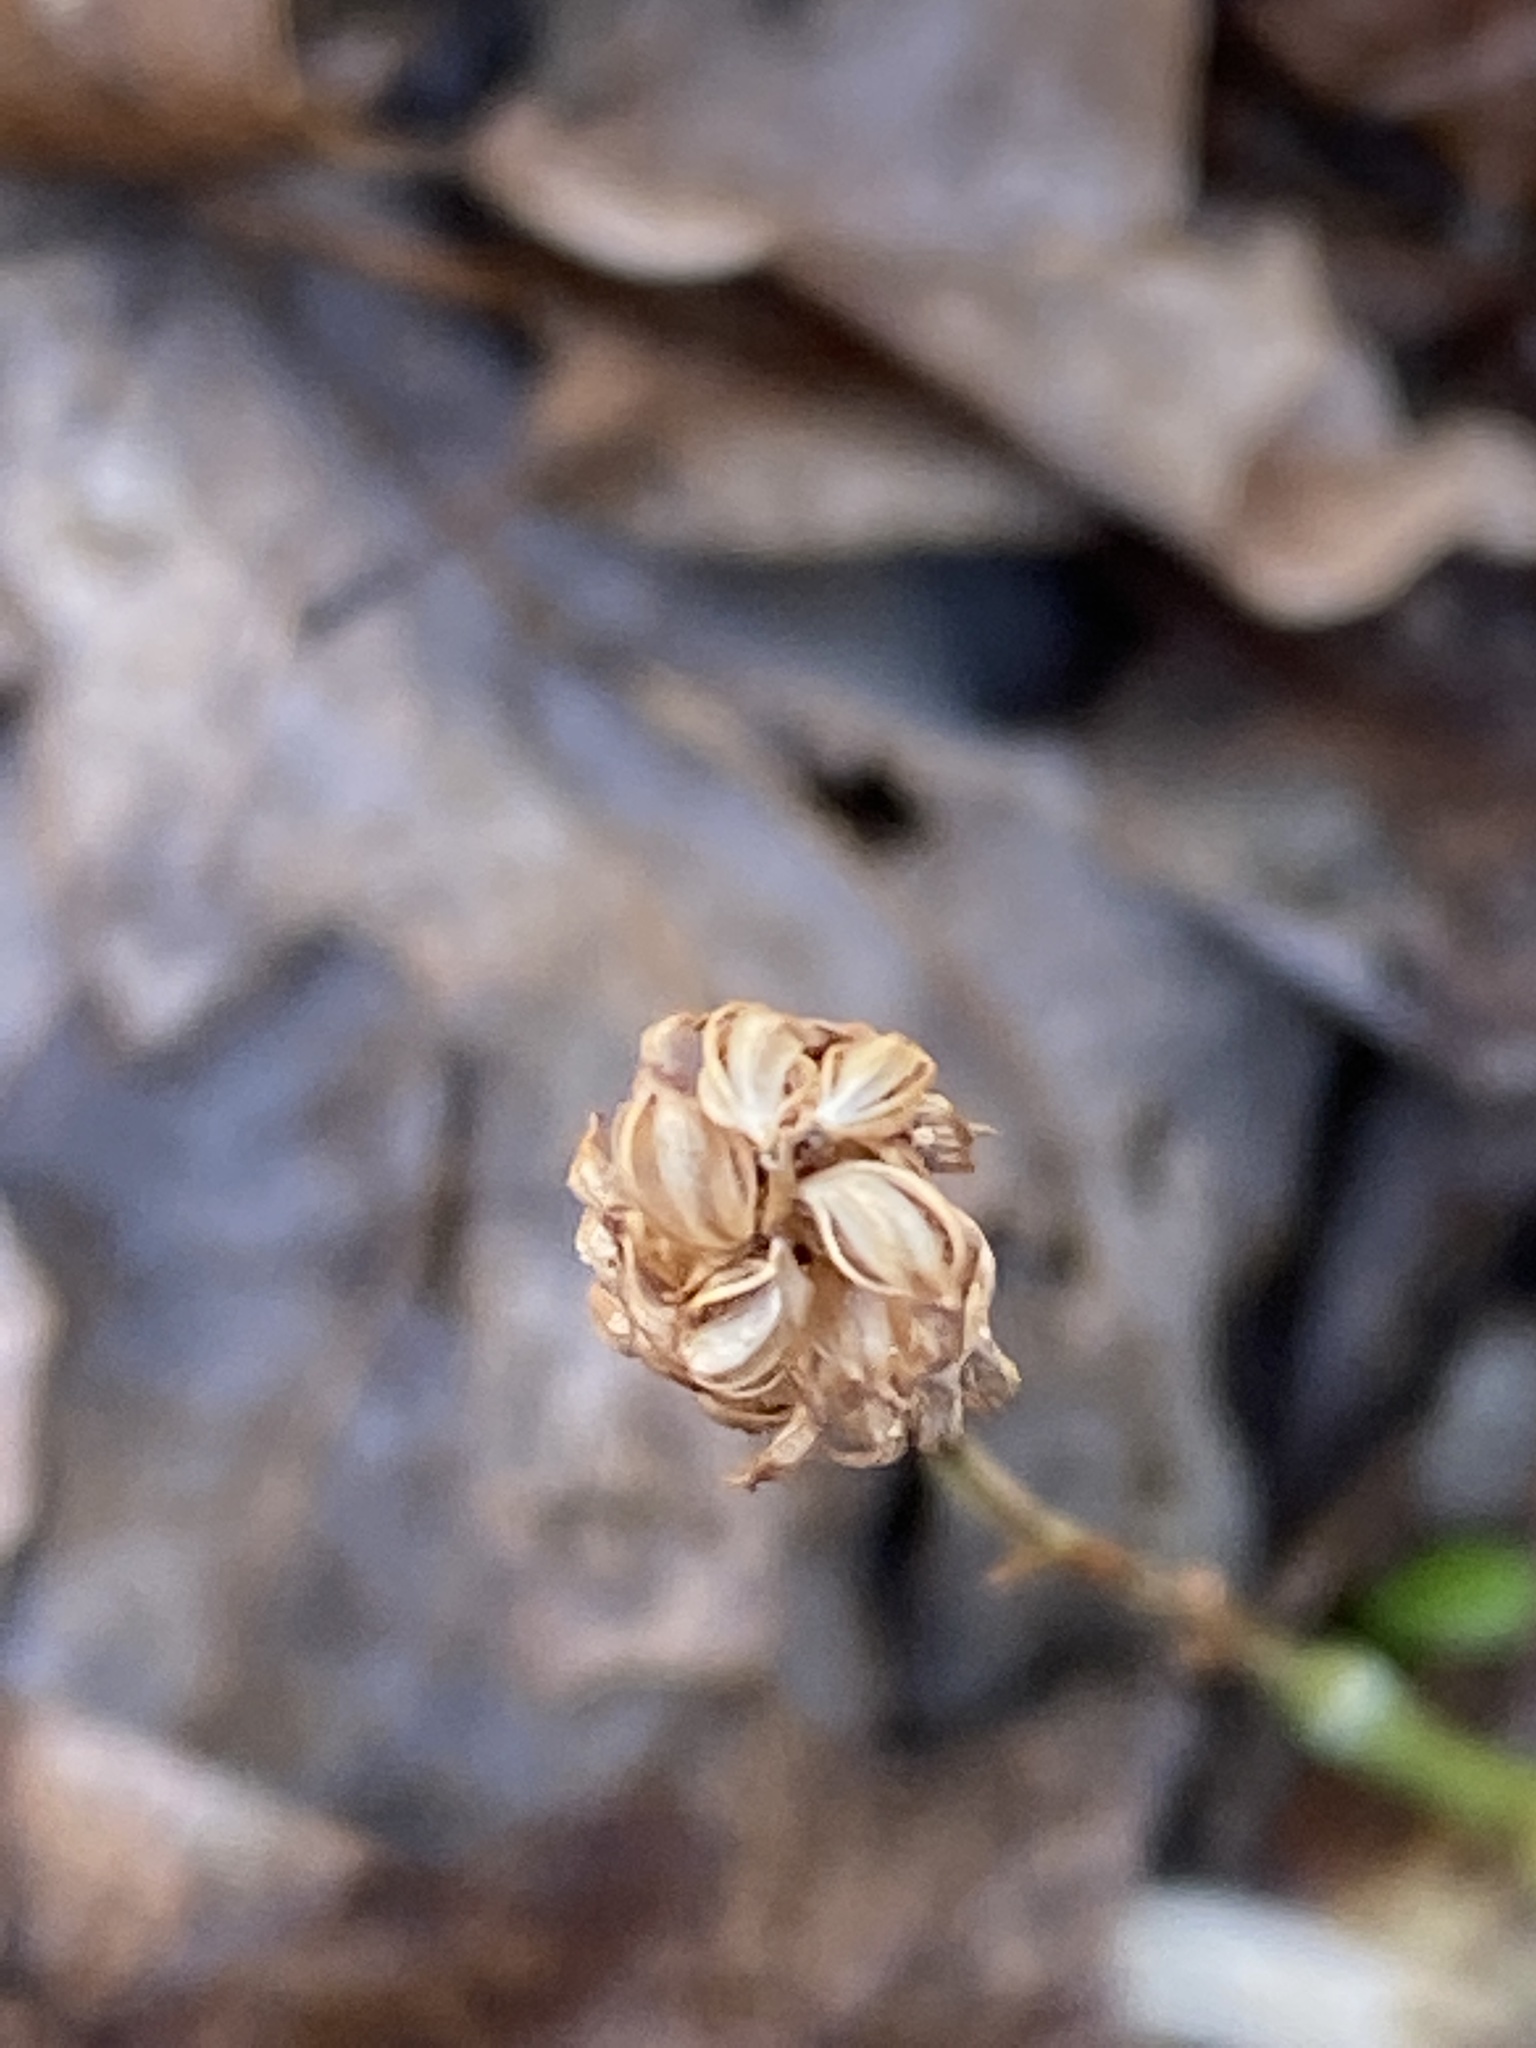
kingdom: Plantae
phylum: Tracheophyta
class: Liliopsida
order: Asparagales
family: Orchidaceae
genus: Spiranthes
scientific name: Spiranthes ovalis
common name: October ladies'-tresses
